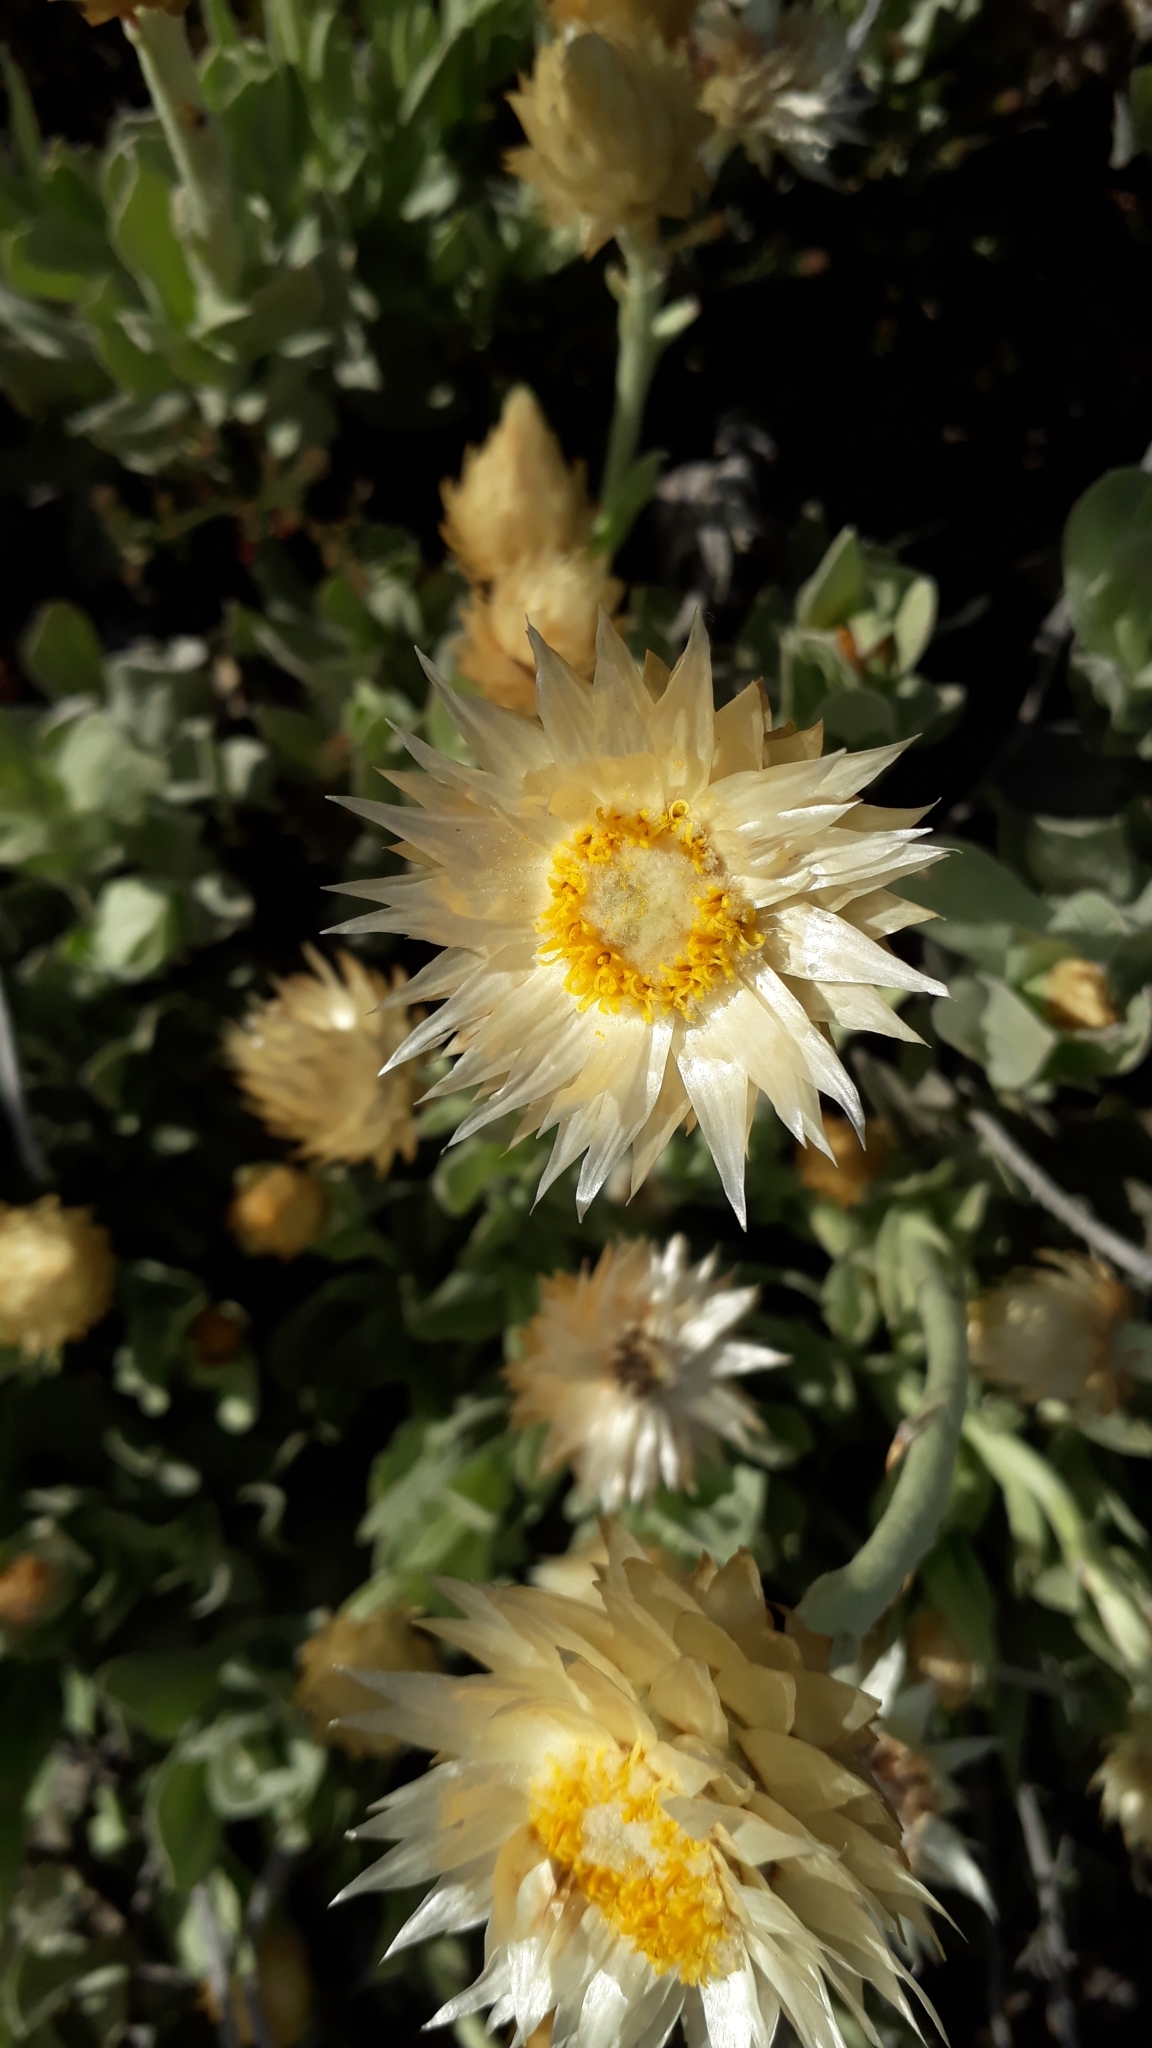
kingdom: Plantae
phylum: Tracheophyta
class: Magnoliopsida
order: Asterales
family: Asteraceae
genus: Syncarpha
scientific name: Syncarpha speciosissima
